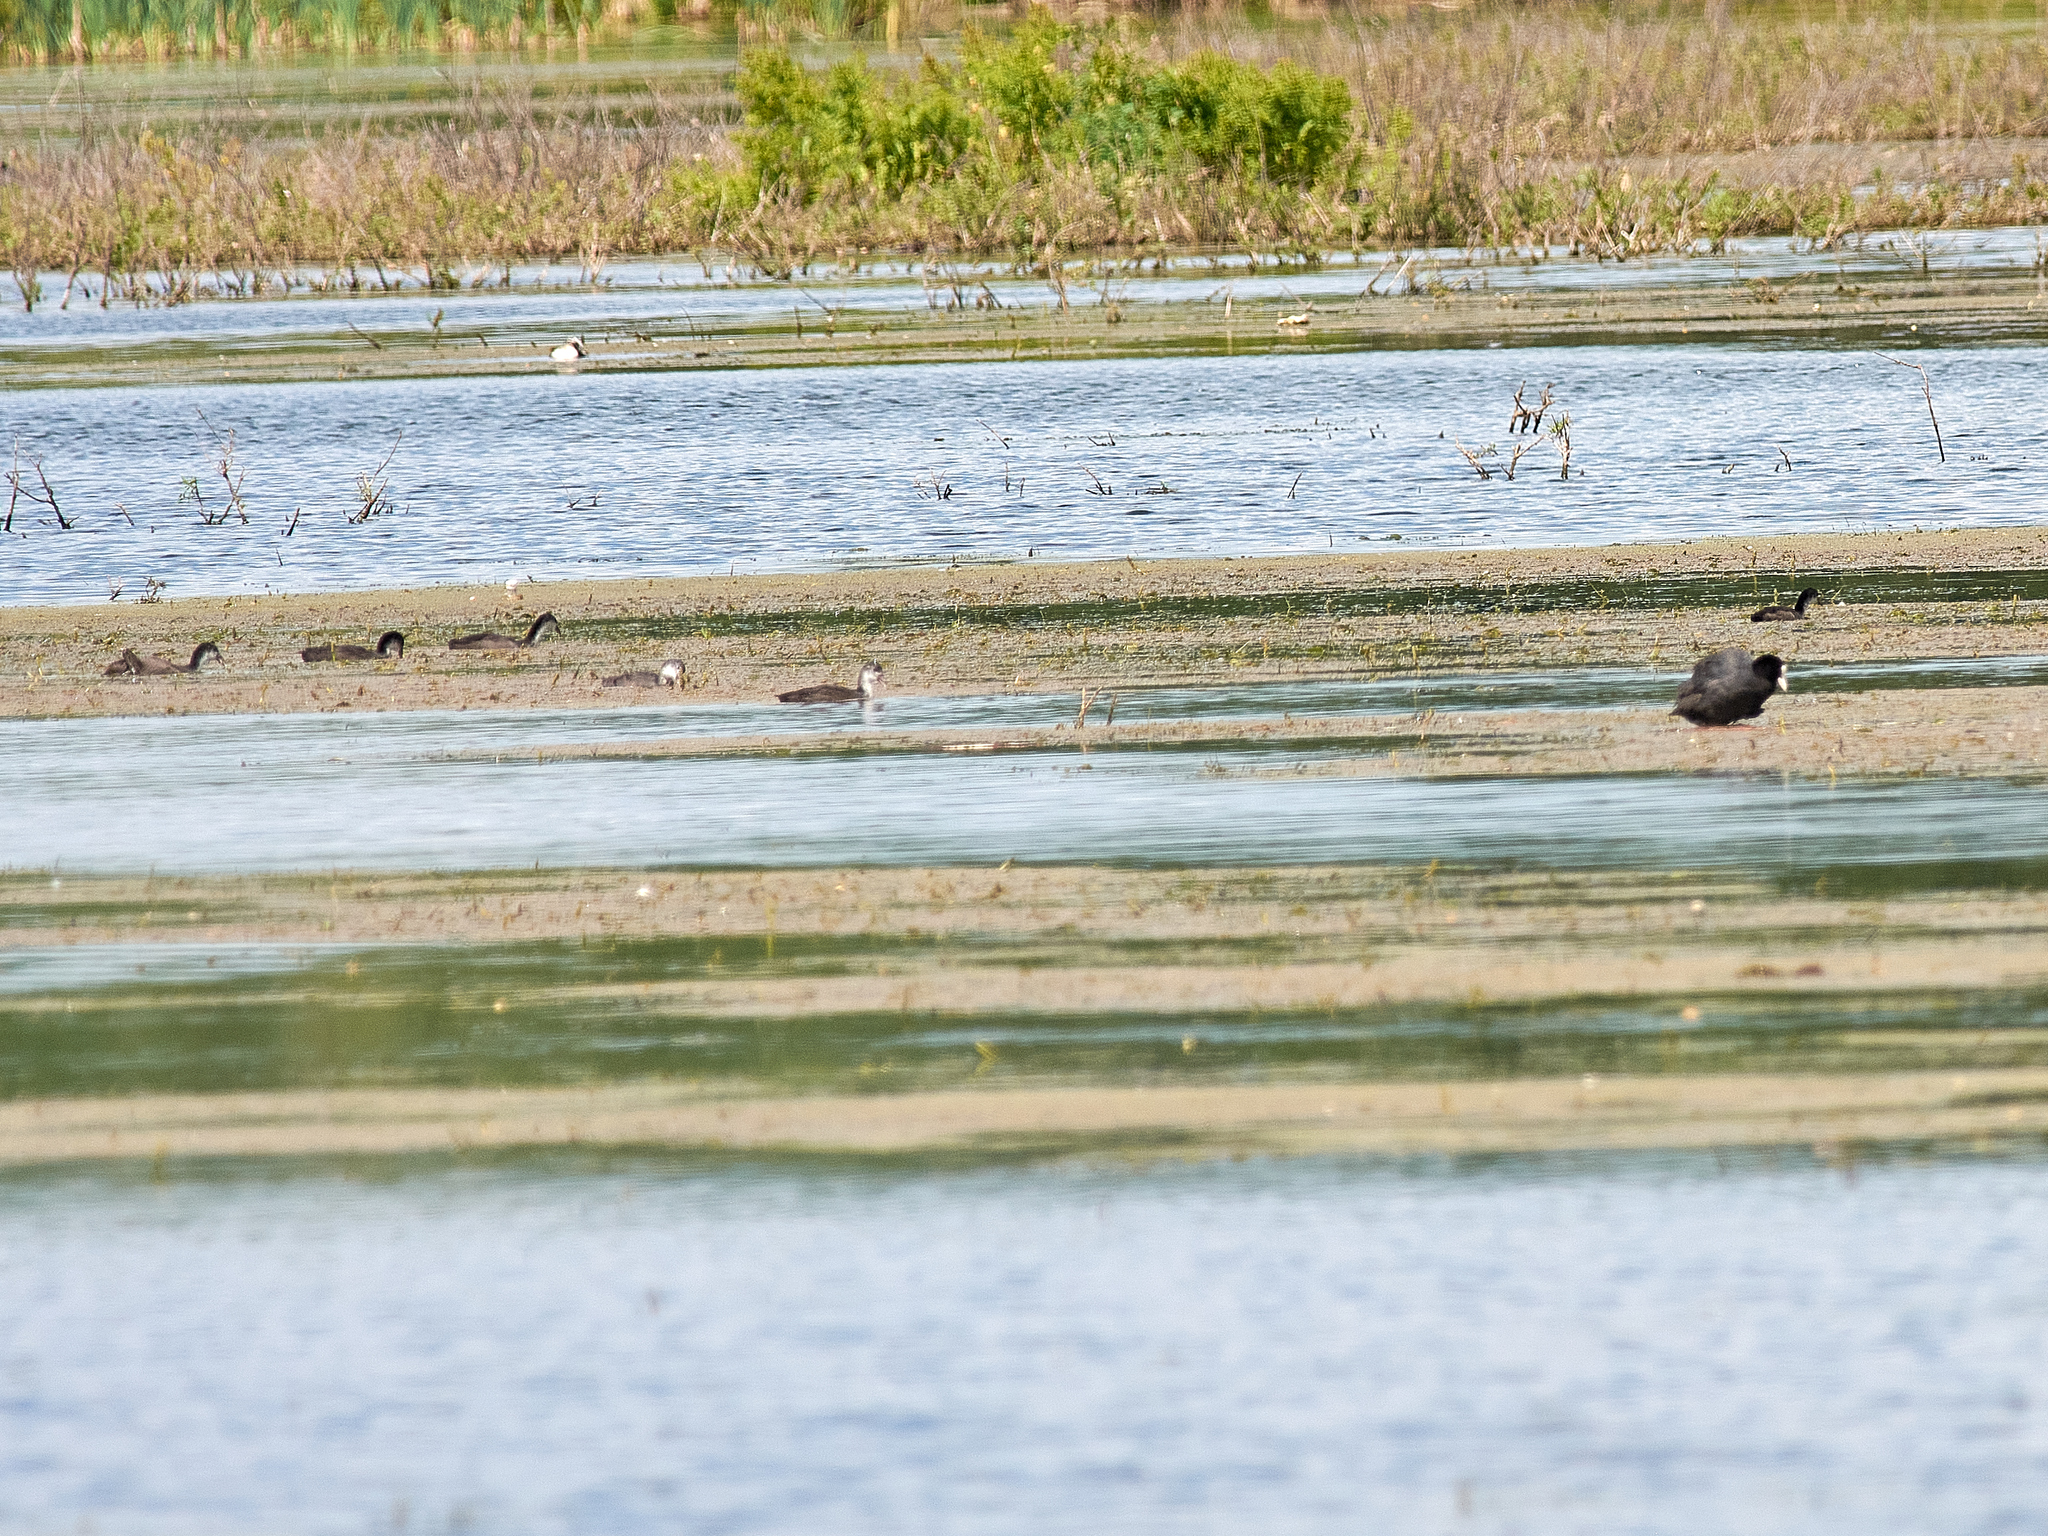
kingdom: Animalia
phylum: Chordata
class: Aves
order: Gruiformes
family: Rallidae
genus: Fulica
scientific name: Fulica atra
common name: Eurasian coot
